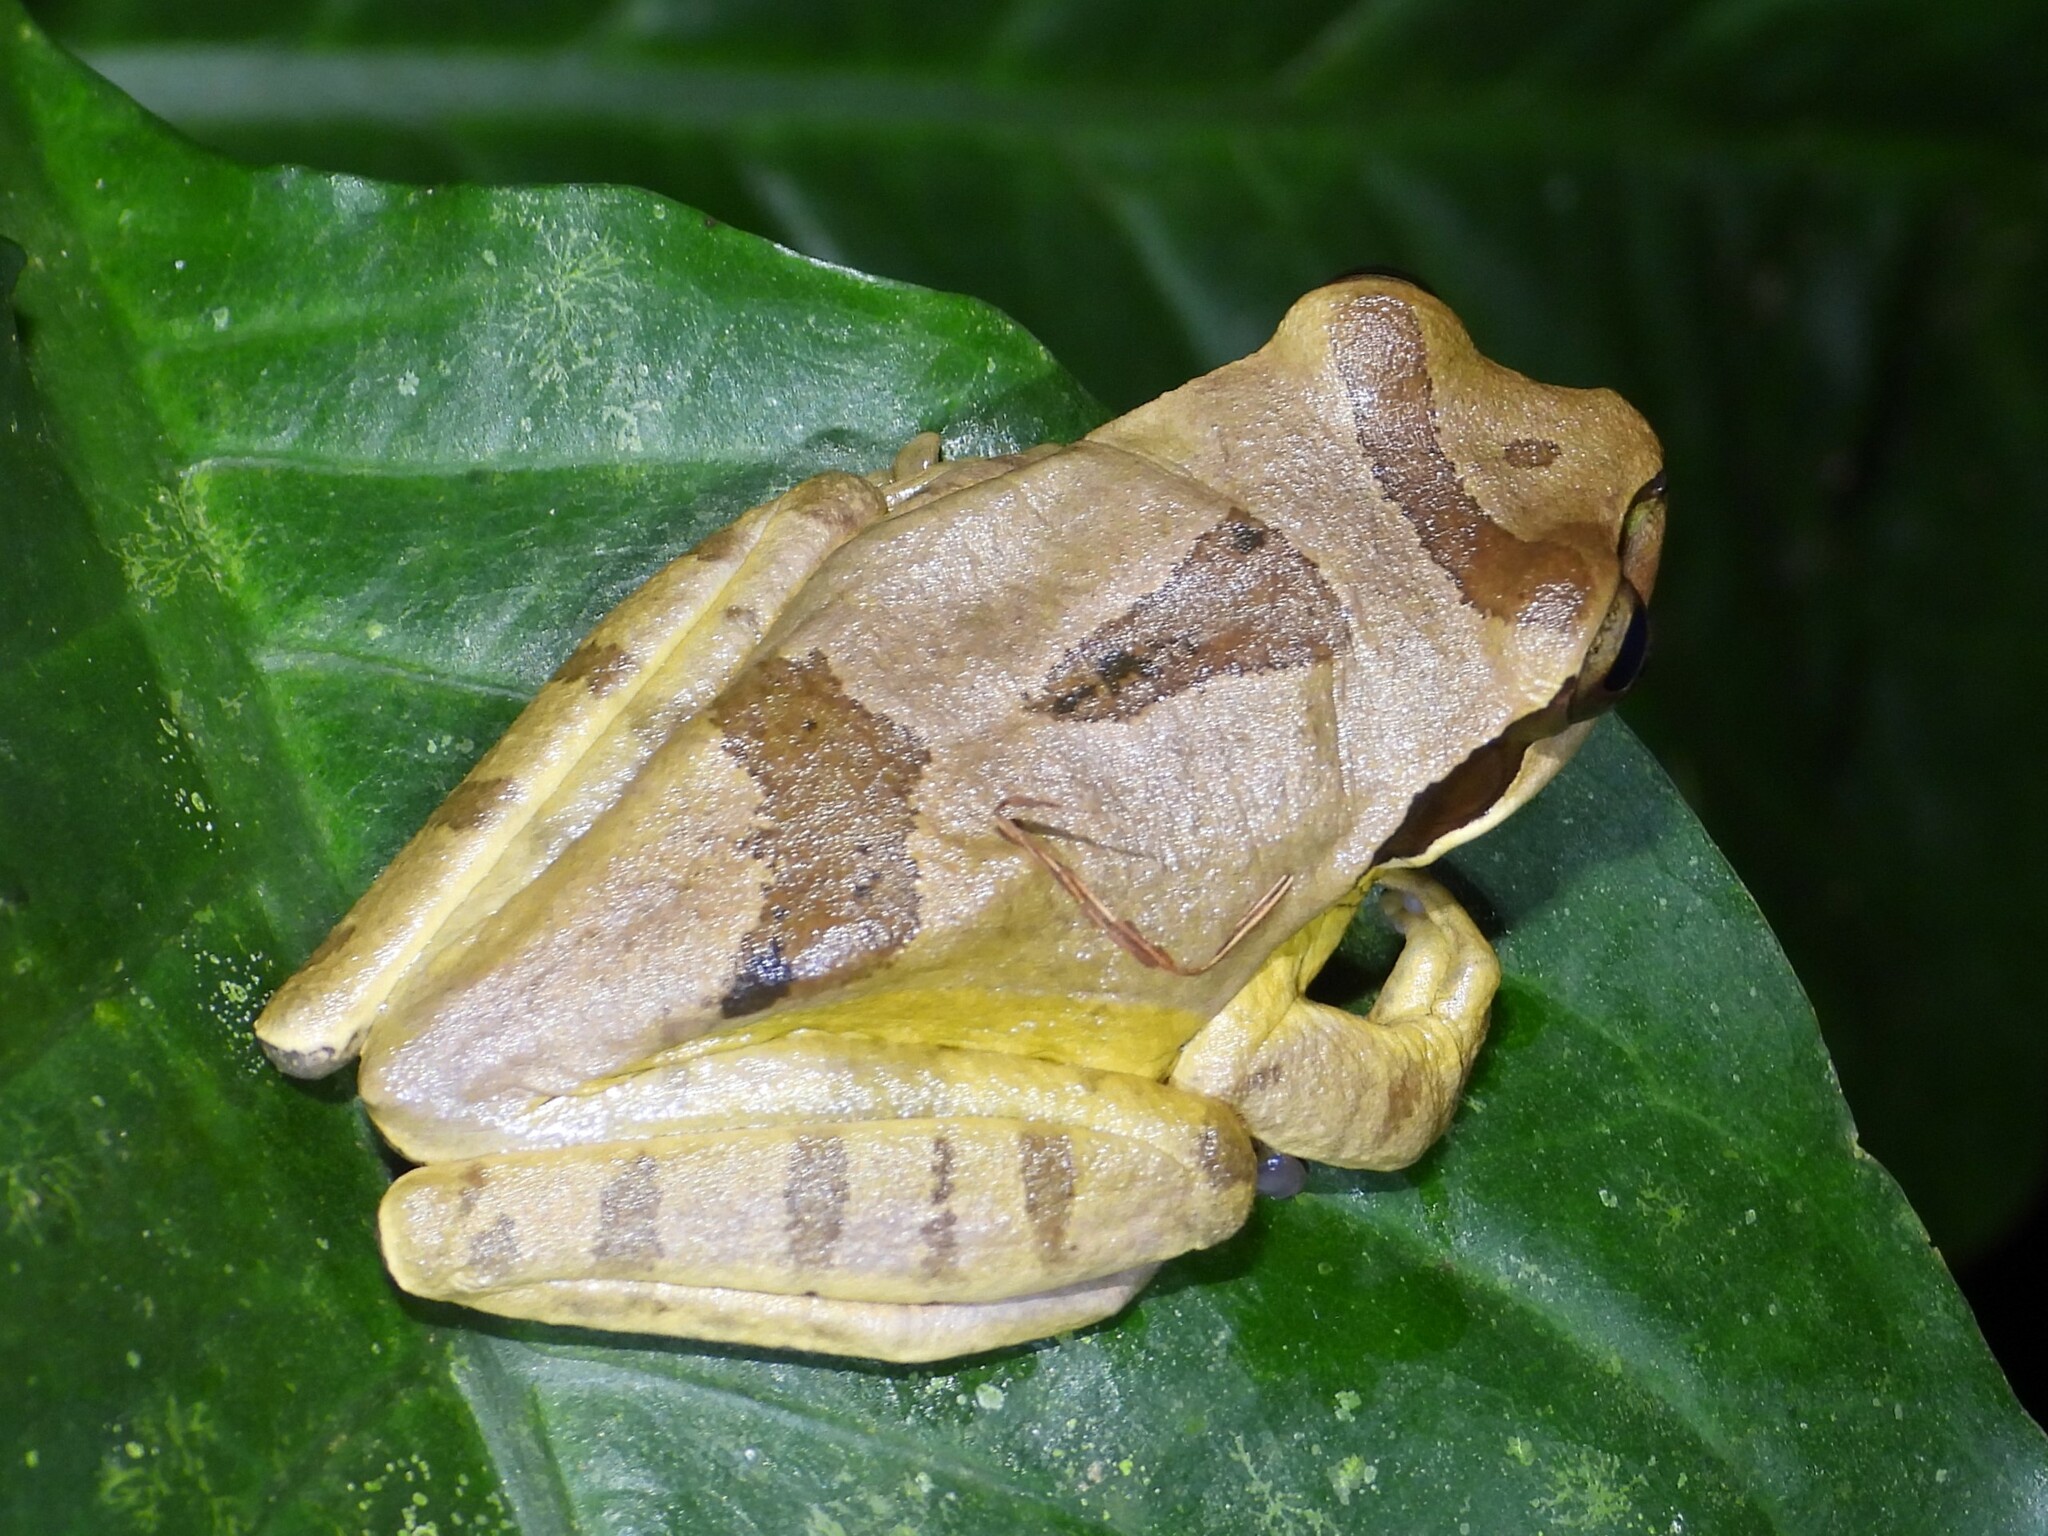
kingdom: Animalia
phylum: Chordata
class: Amphibia
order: Anura
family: Hylidae
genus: Smilisca
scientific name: Smilisca phaeota
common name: Central american smilisca
